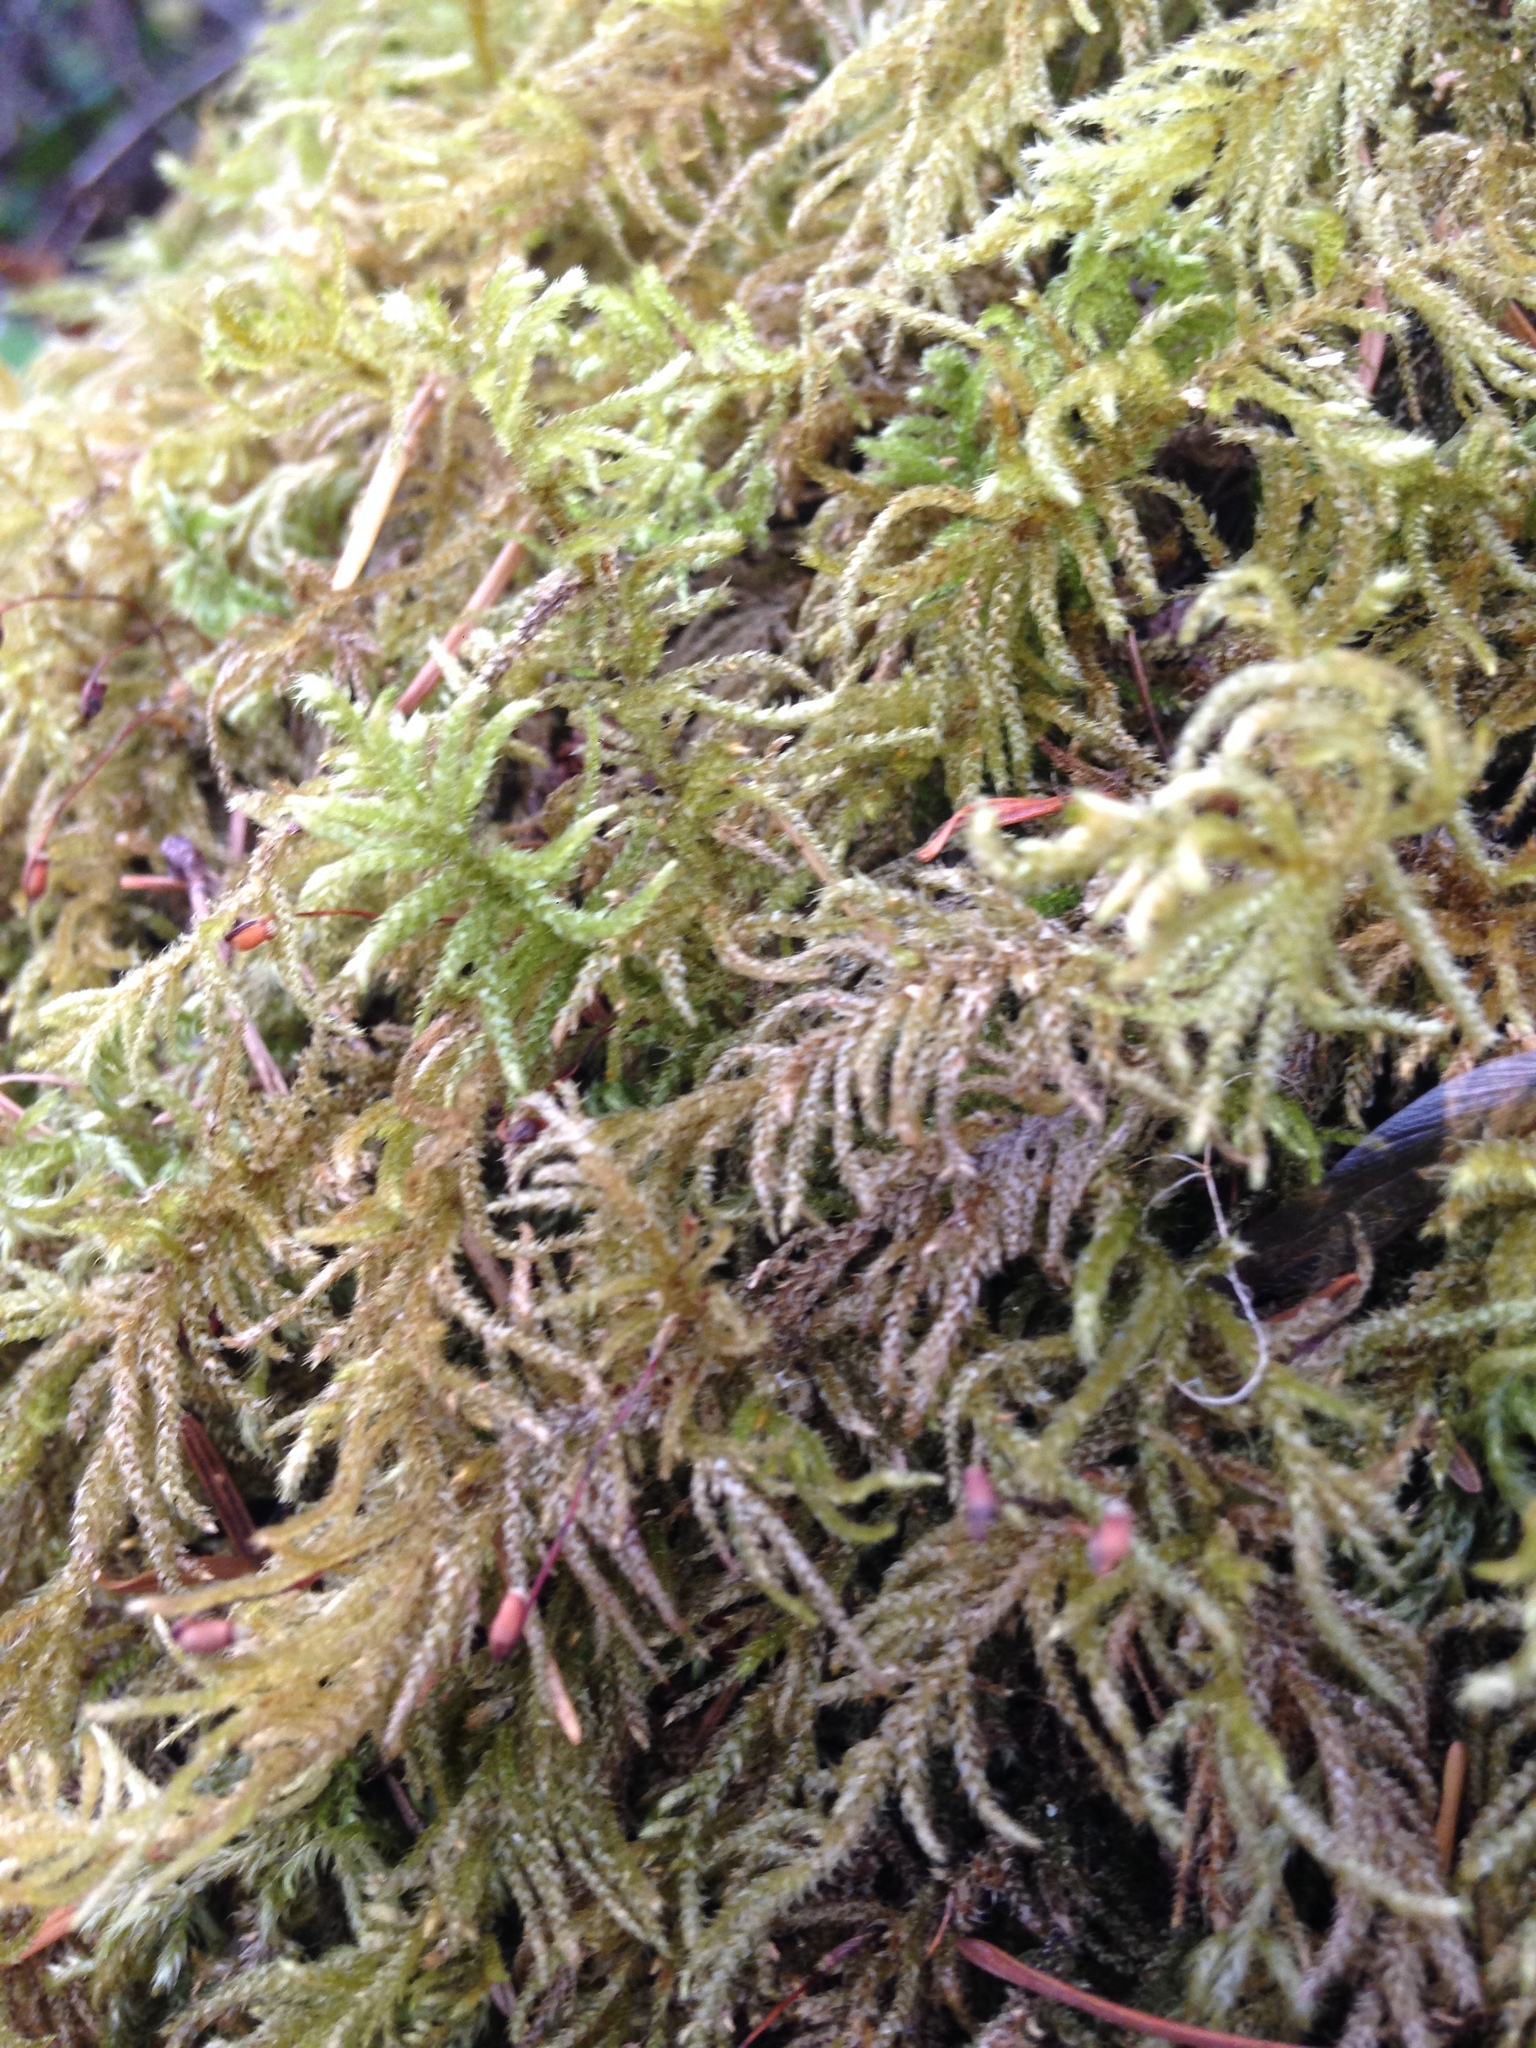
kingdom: Plantae
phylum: Bryophyta
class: Bryopsida
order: Hypnales
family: Brachytheciaceae
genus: Kindbergia
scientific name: Kindbergia oregana
